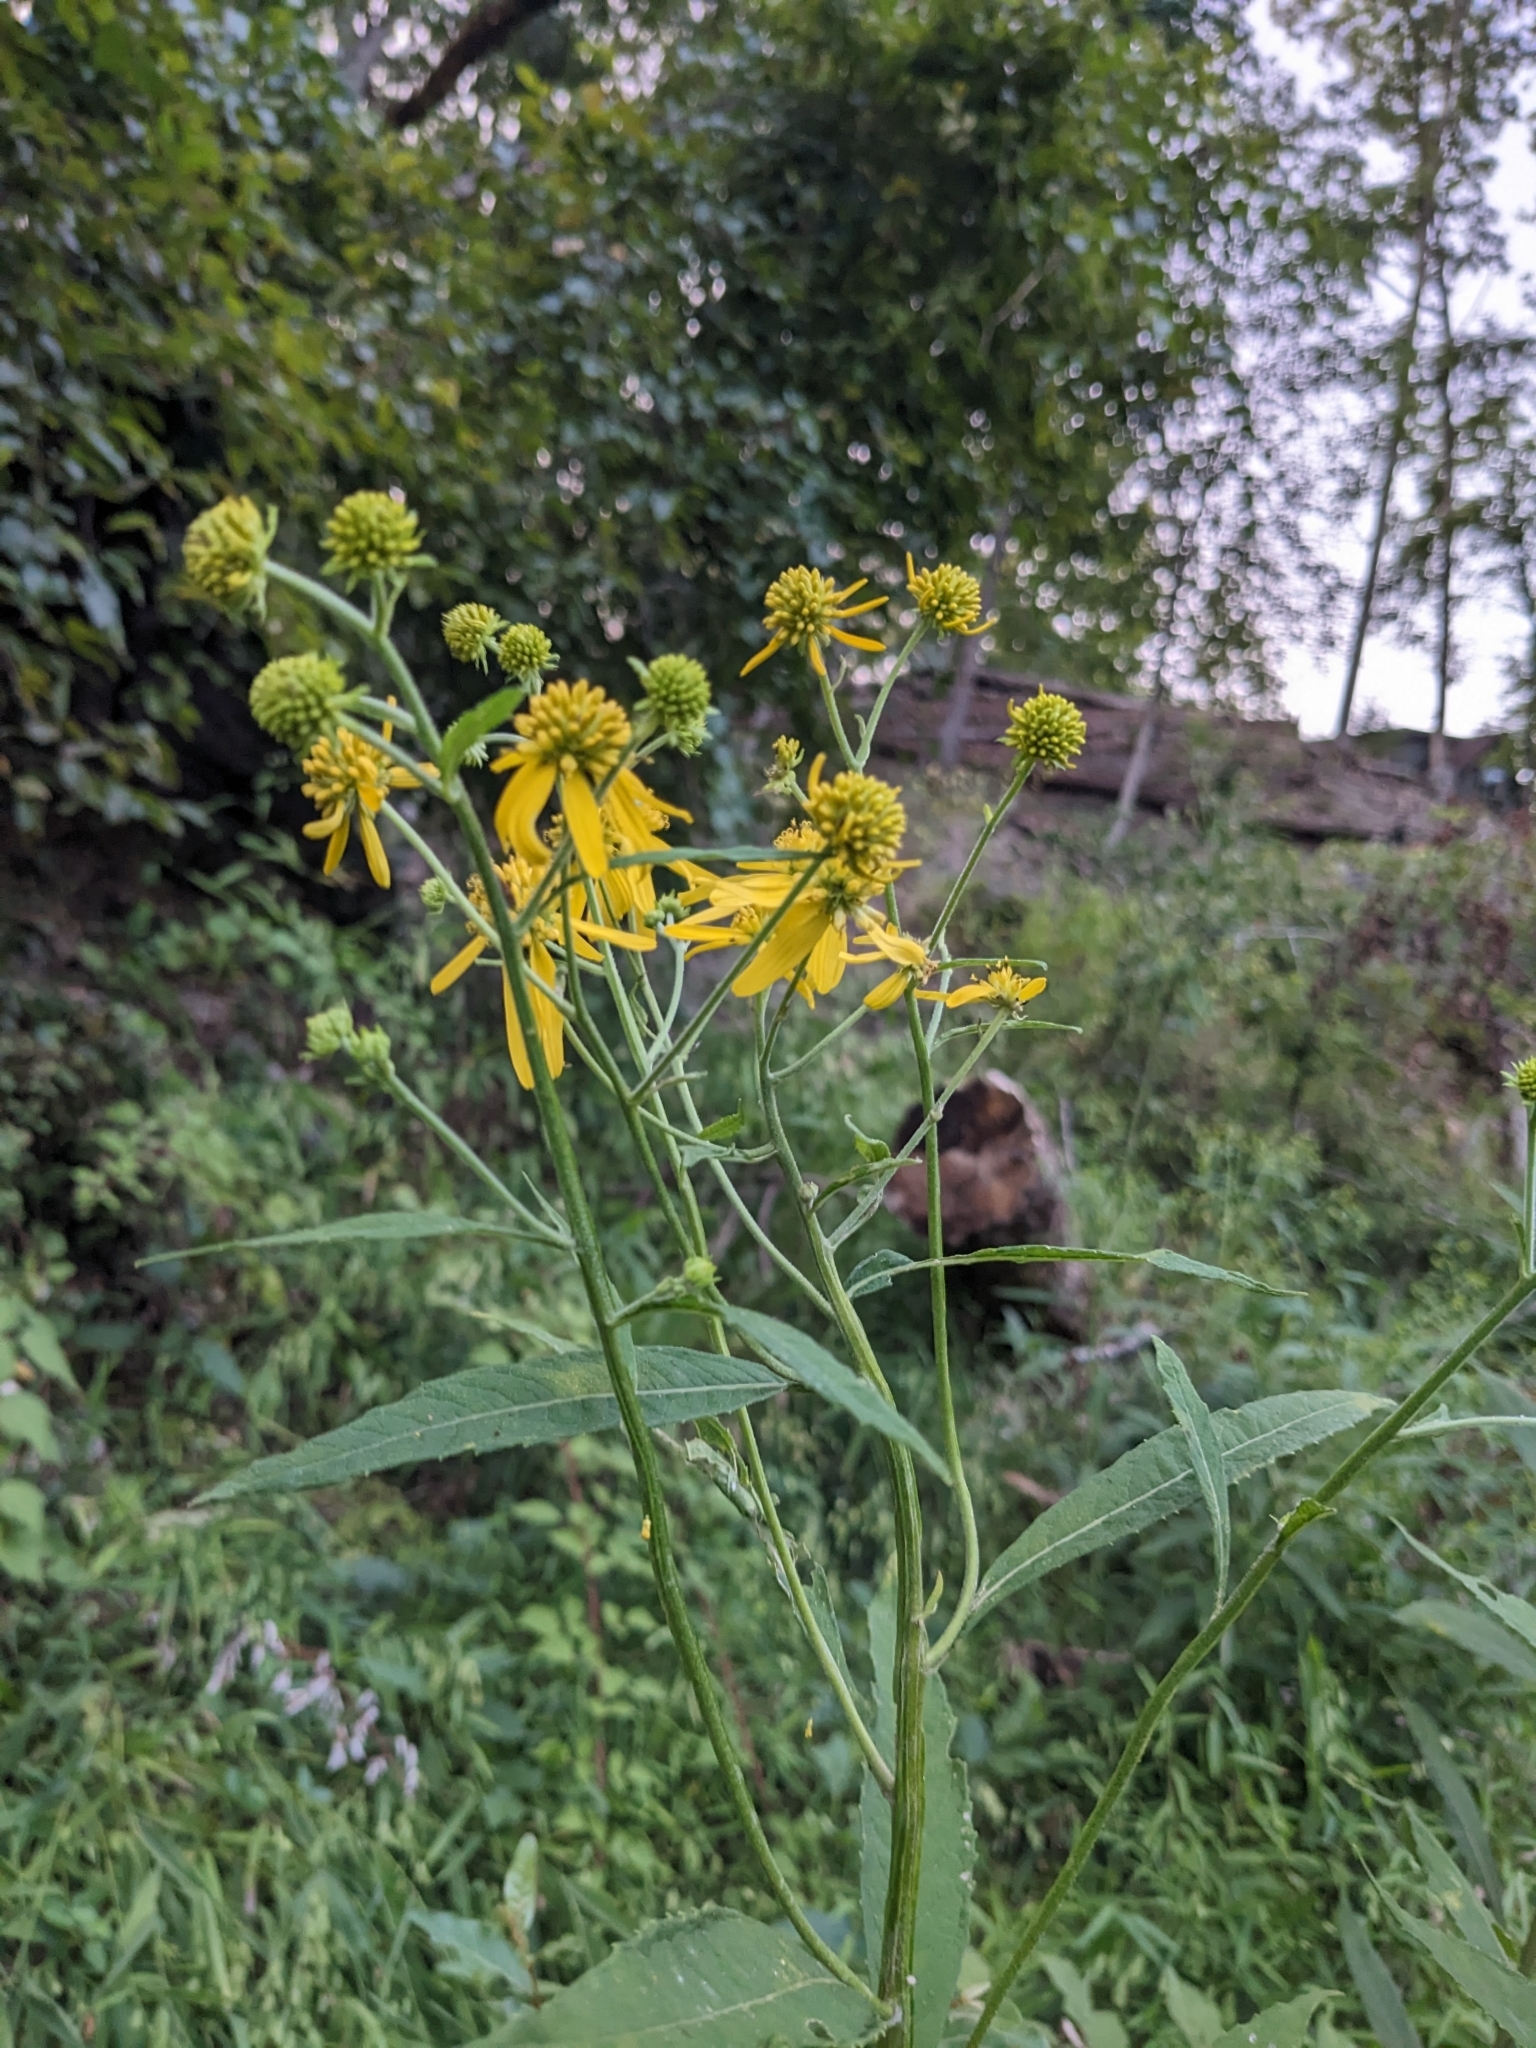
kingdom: Plantae
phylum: Tracheophyta
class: Magnoliopsida
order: Asterales
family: Asteraceae
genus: Verbesina
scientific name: Verbesina alternifolia
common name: Wingstem
